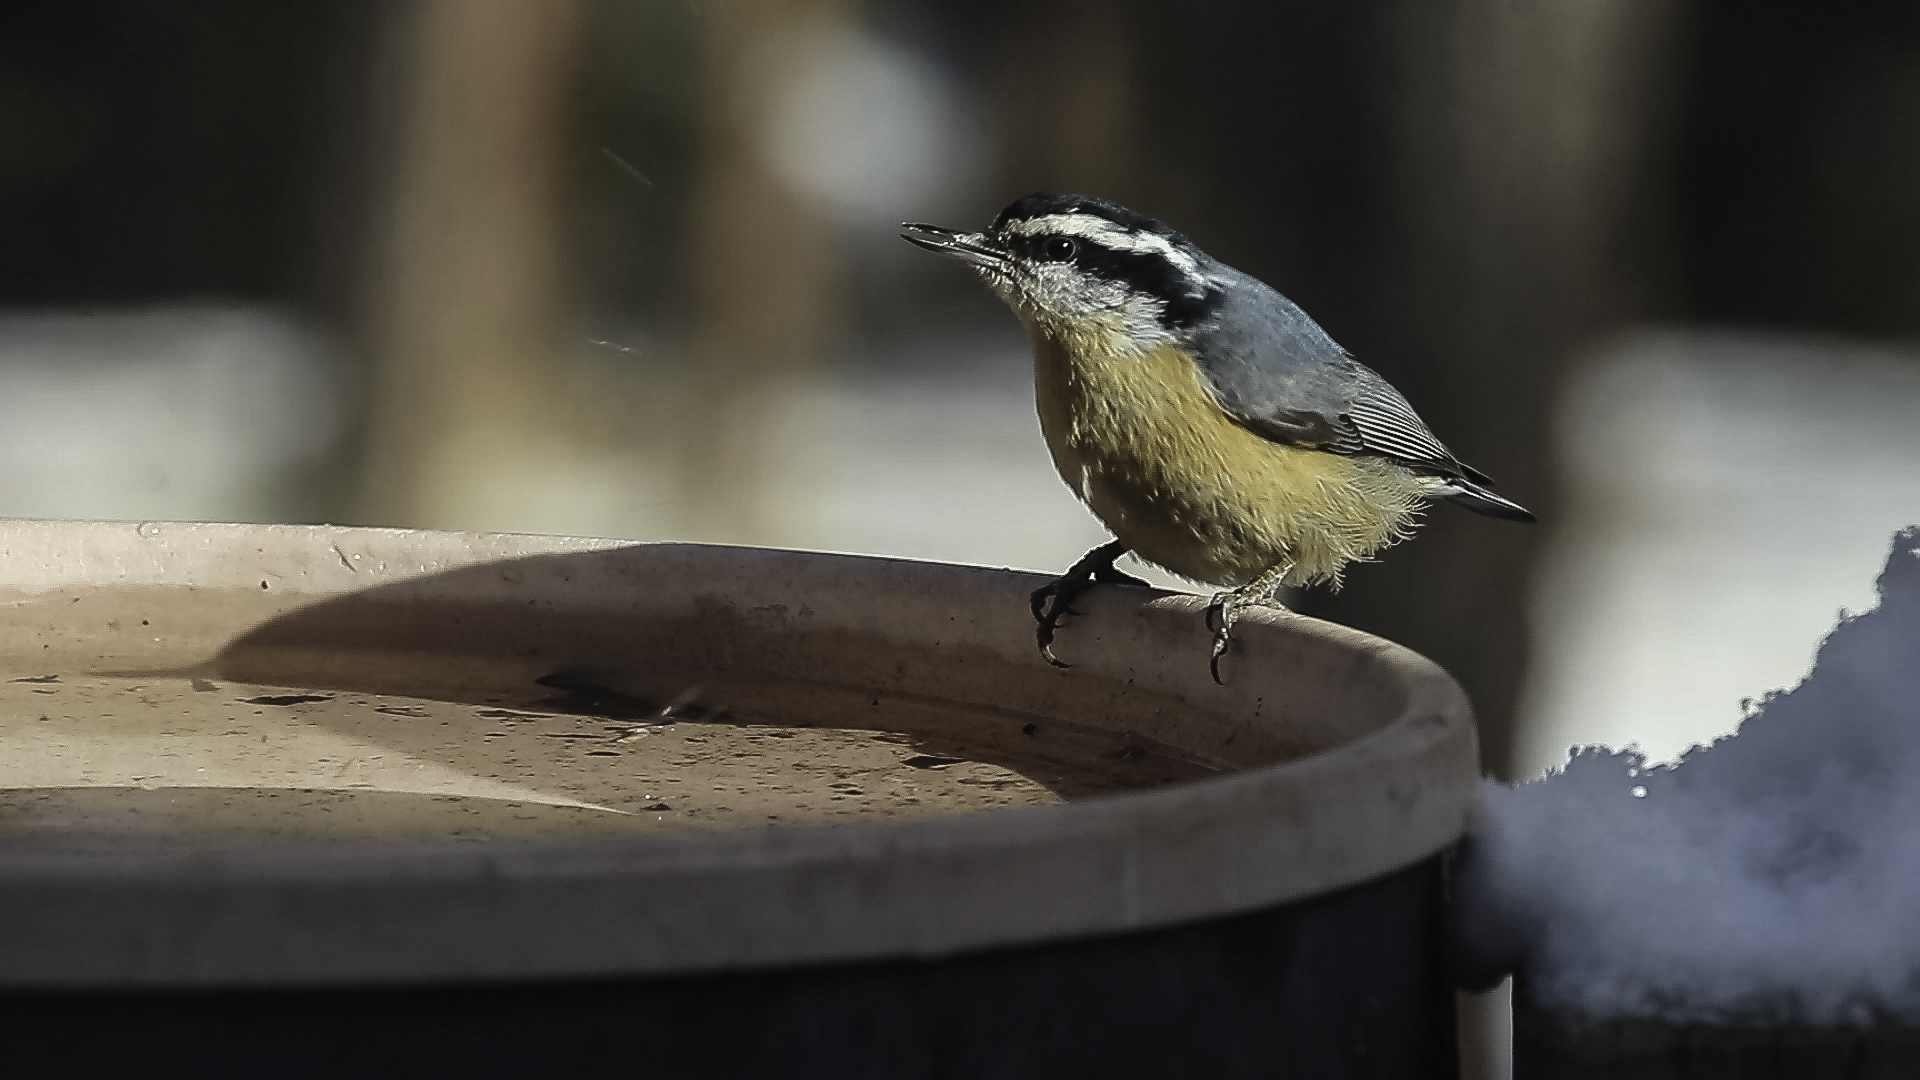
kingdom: Animalia
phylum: Chordata
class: Aves
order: Passeriformes
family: Sittidae
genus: Sitta
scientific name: Sitta canadensis
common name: Red-breasted nuthatch
